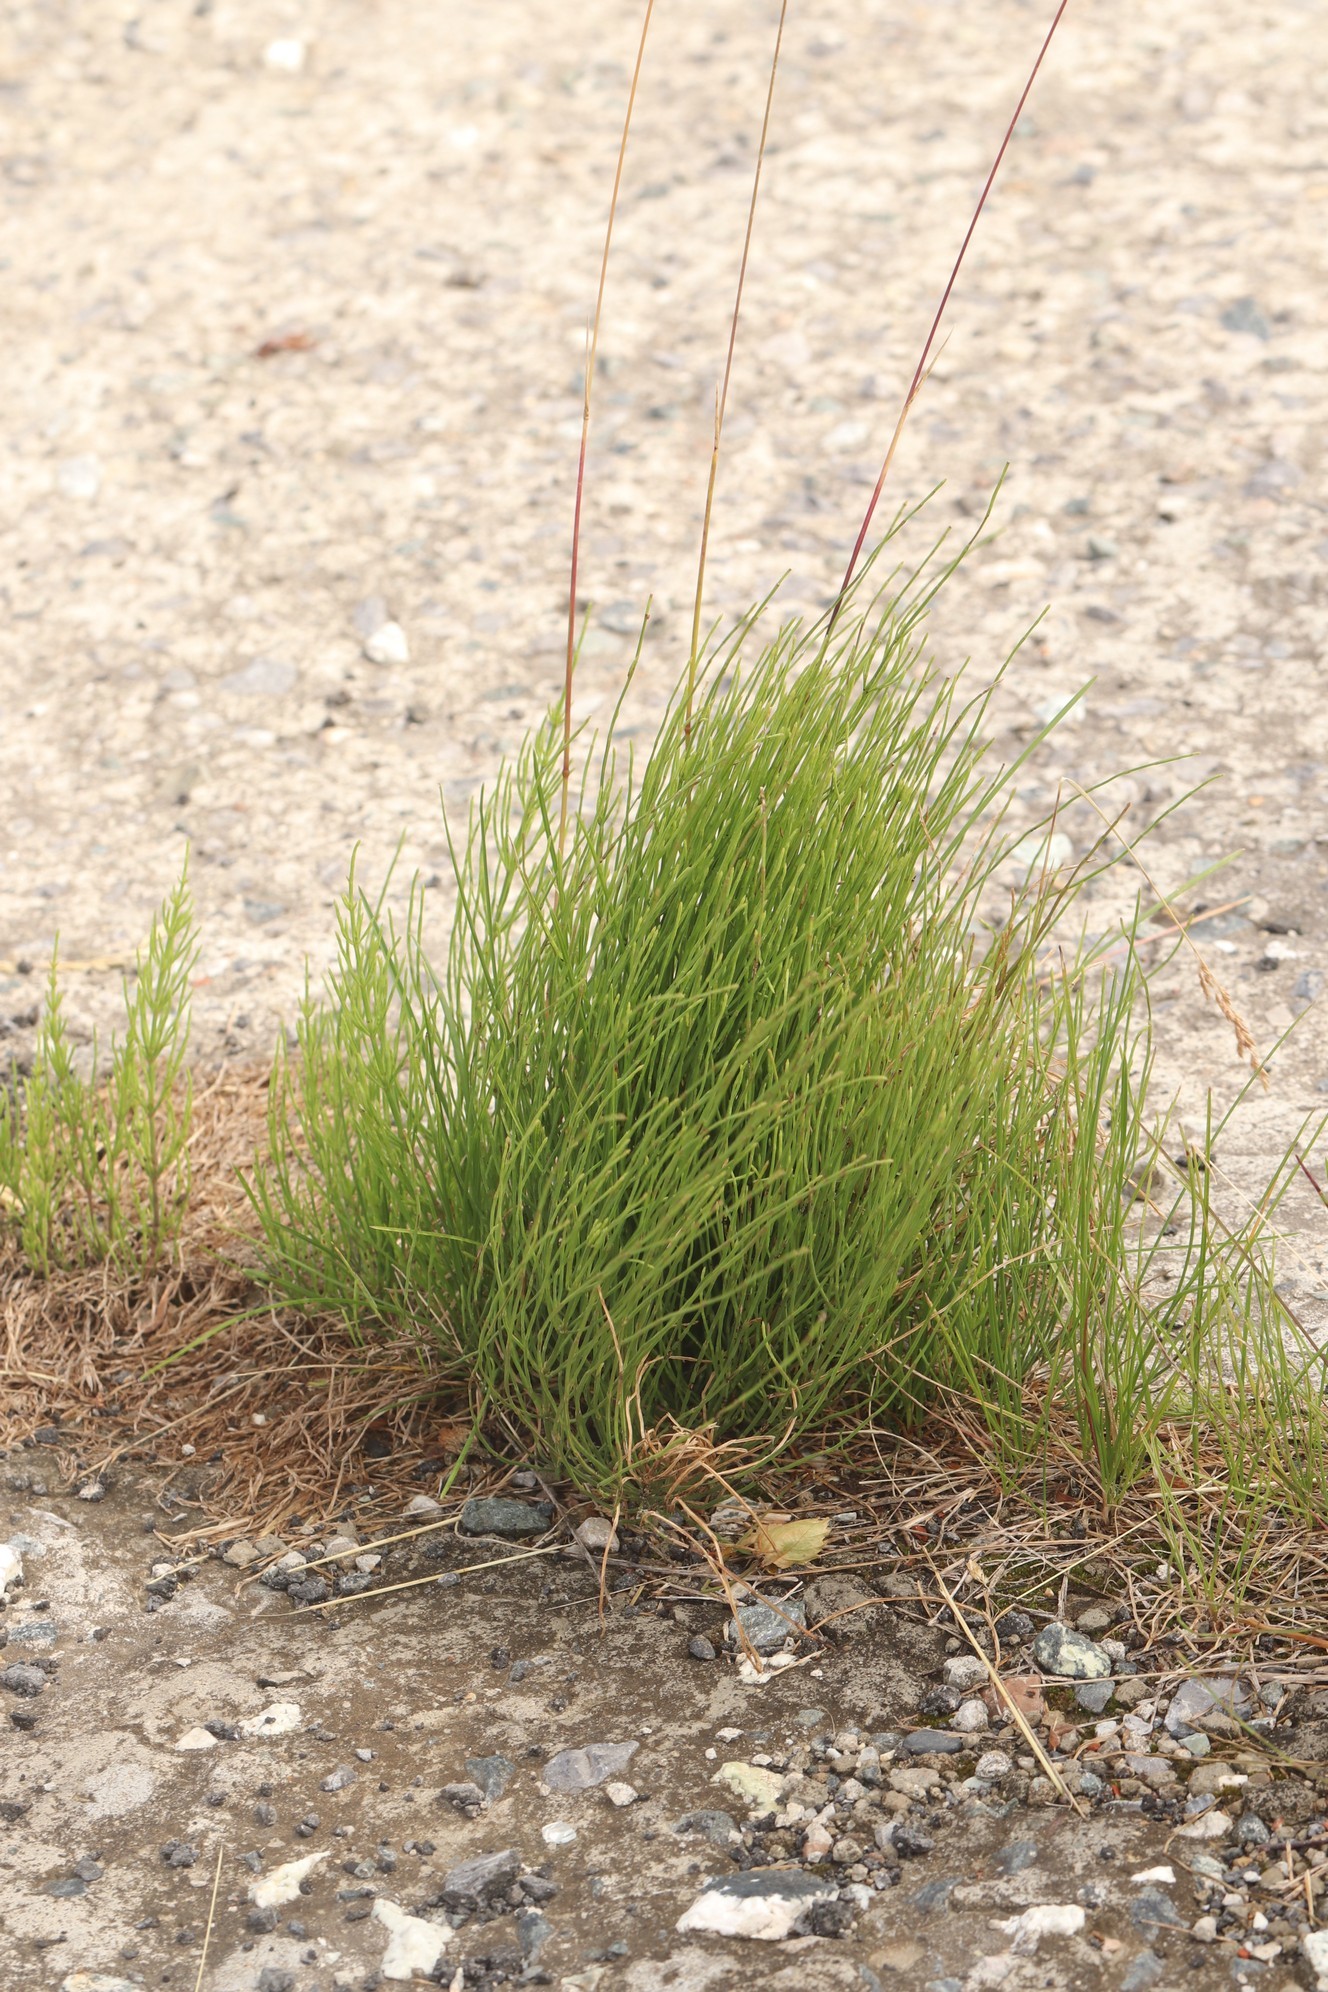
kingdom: Plantae
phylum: Tracheophyta
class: Polypodiopsida
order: Equisetales
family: Equisetaceae
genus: Equisetum
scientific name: Equisetum arvense
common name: Field horsetail
